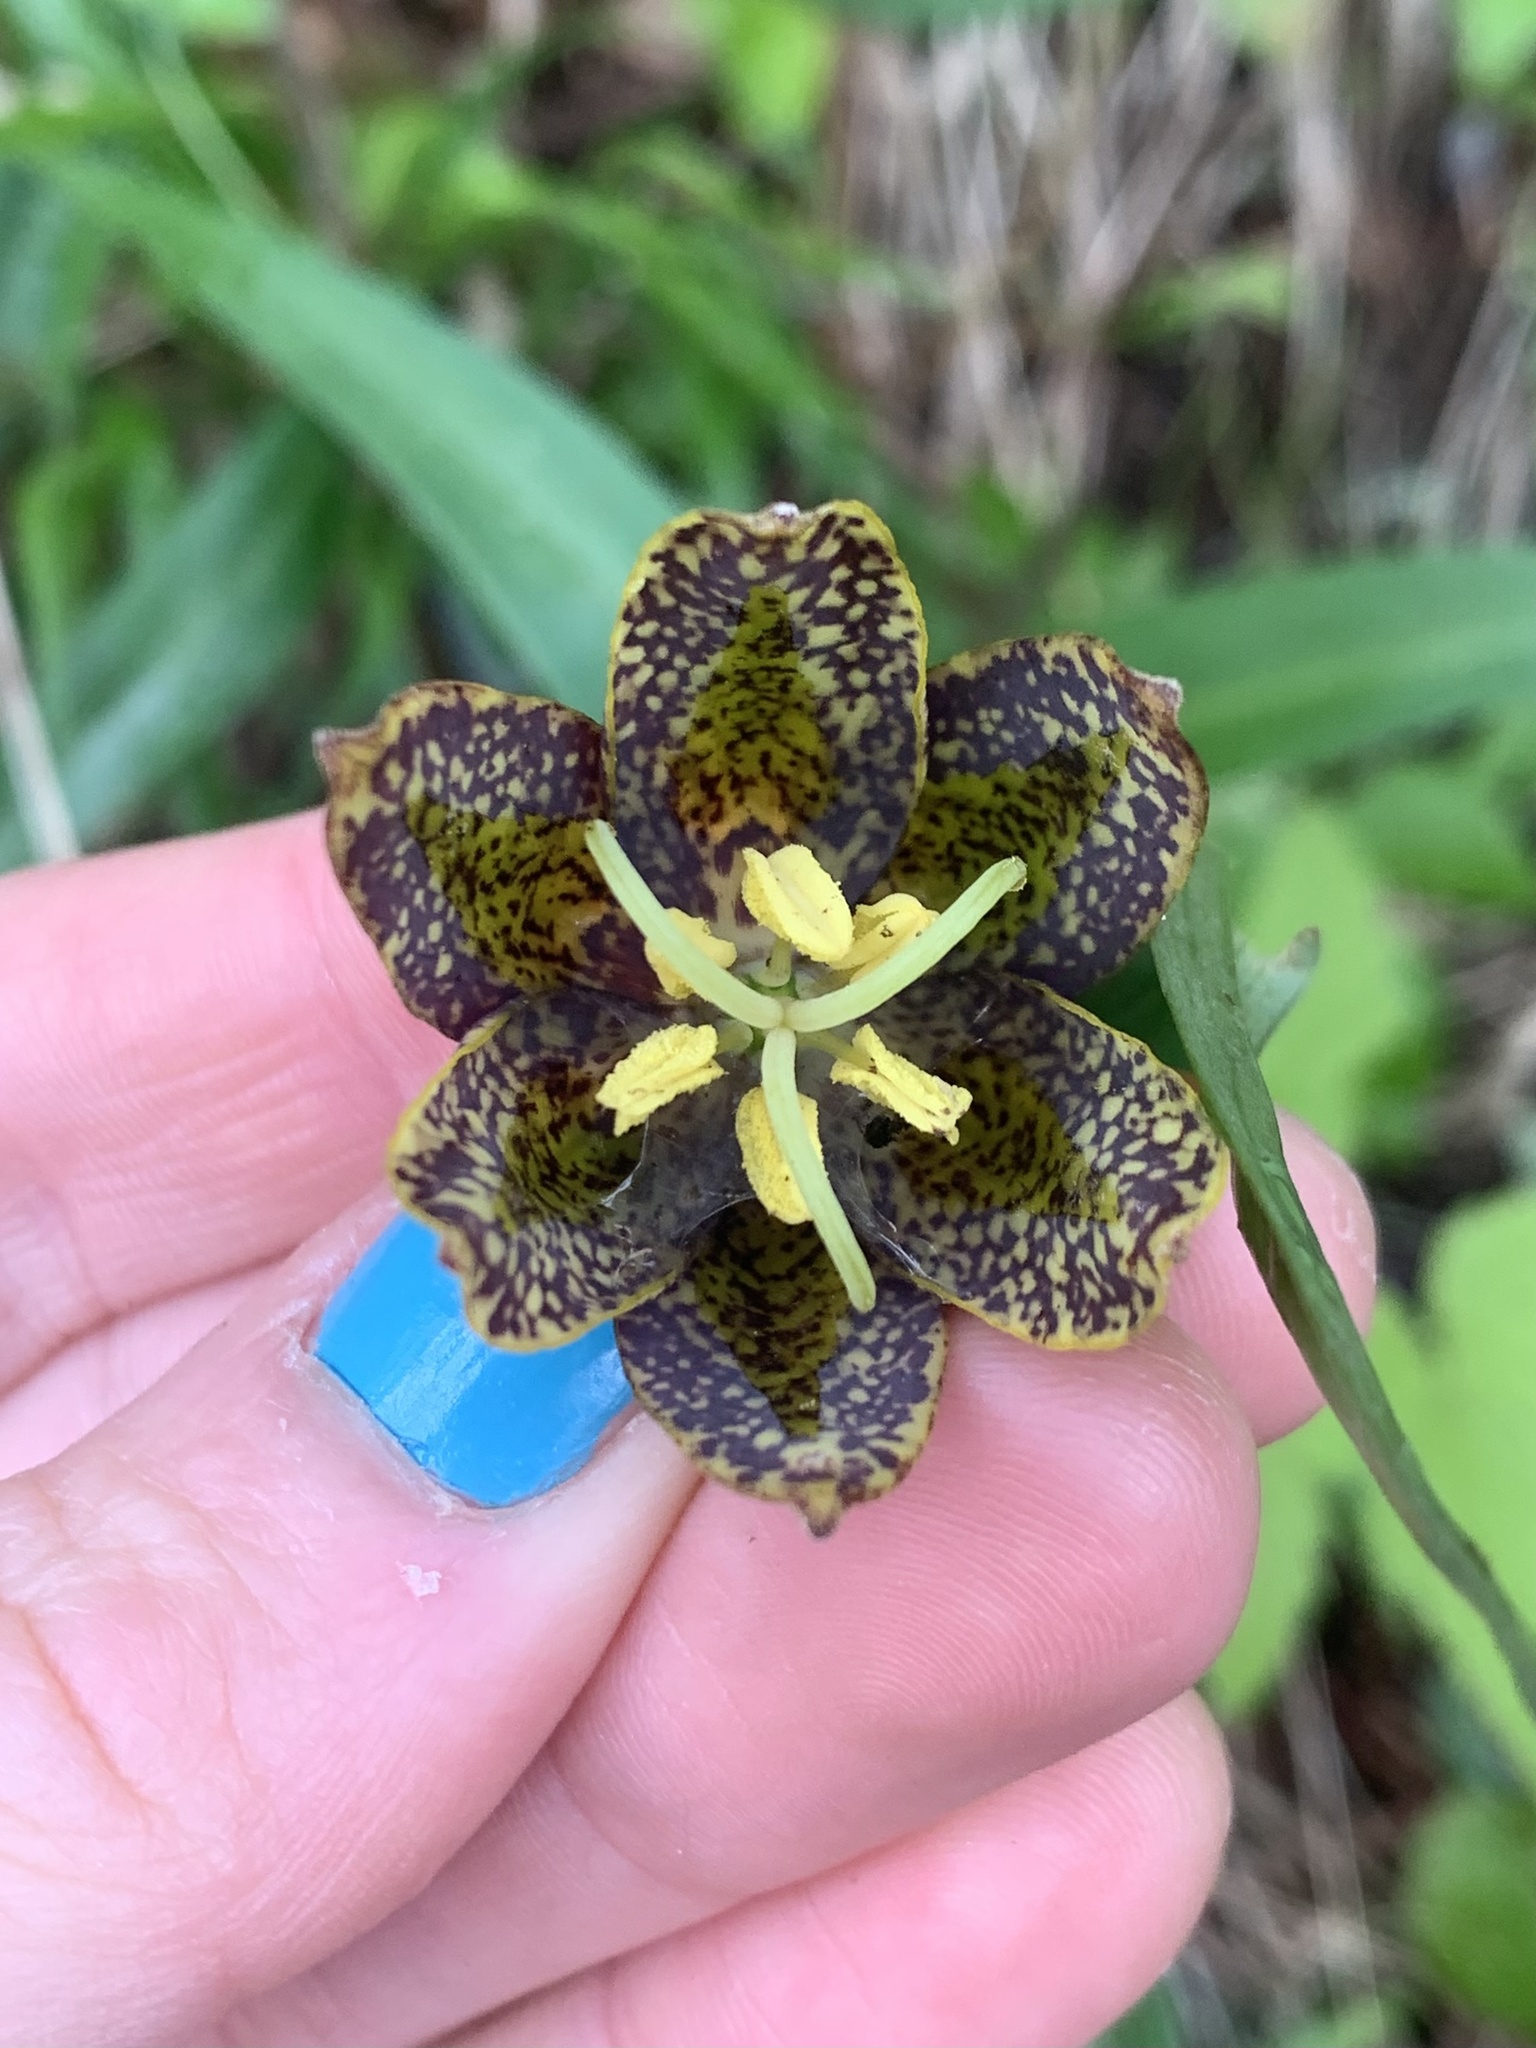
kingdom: Plantae
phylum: Tracheophyta
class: Liliopsida
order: Liliales
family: Liliaceae
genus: Fritillaria
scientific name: Fritillaria affinis
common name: Ojai fritillary
